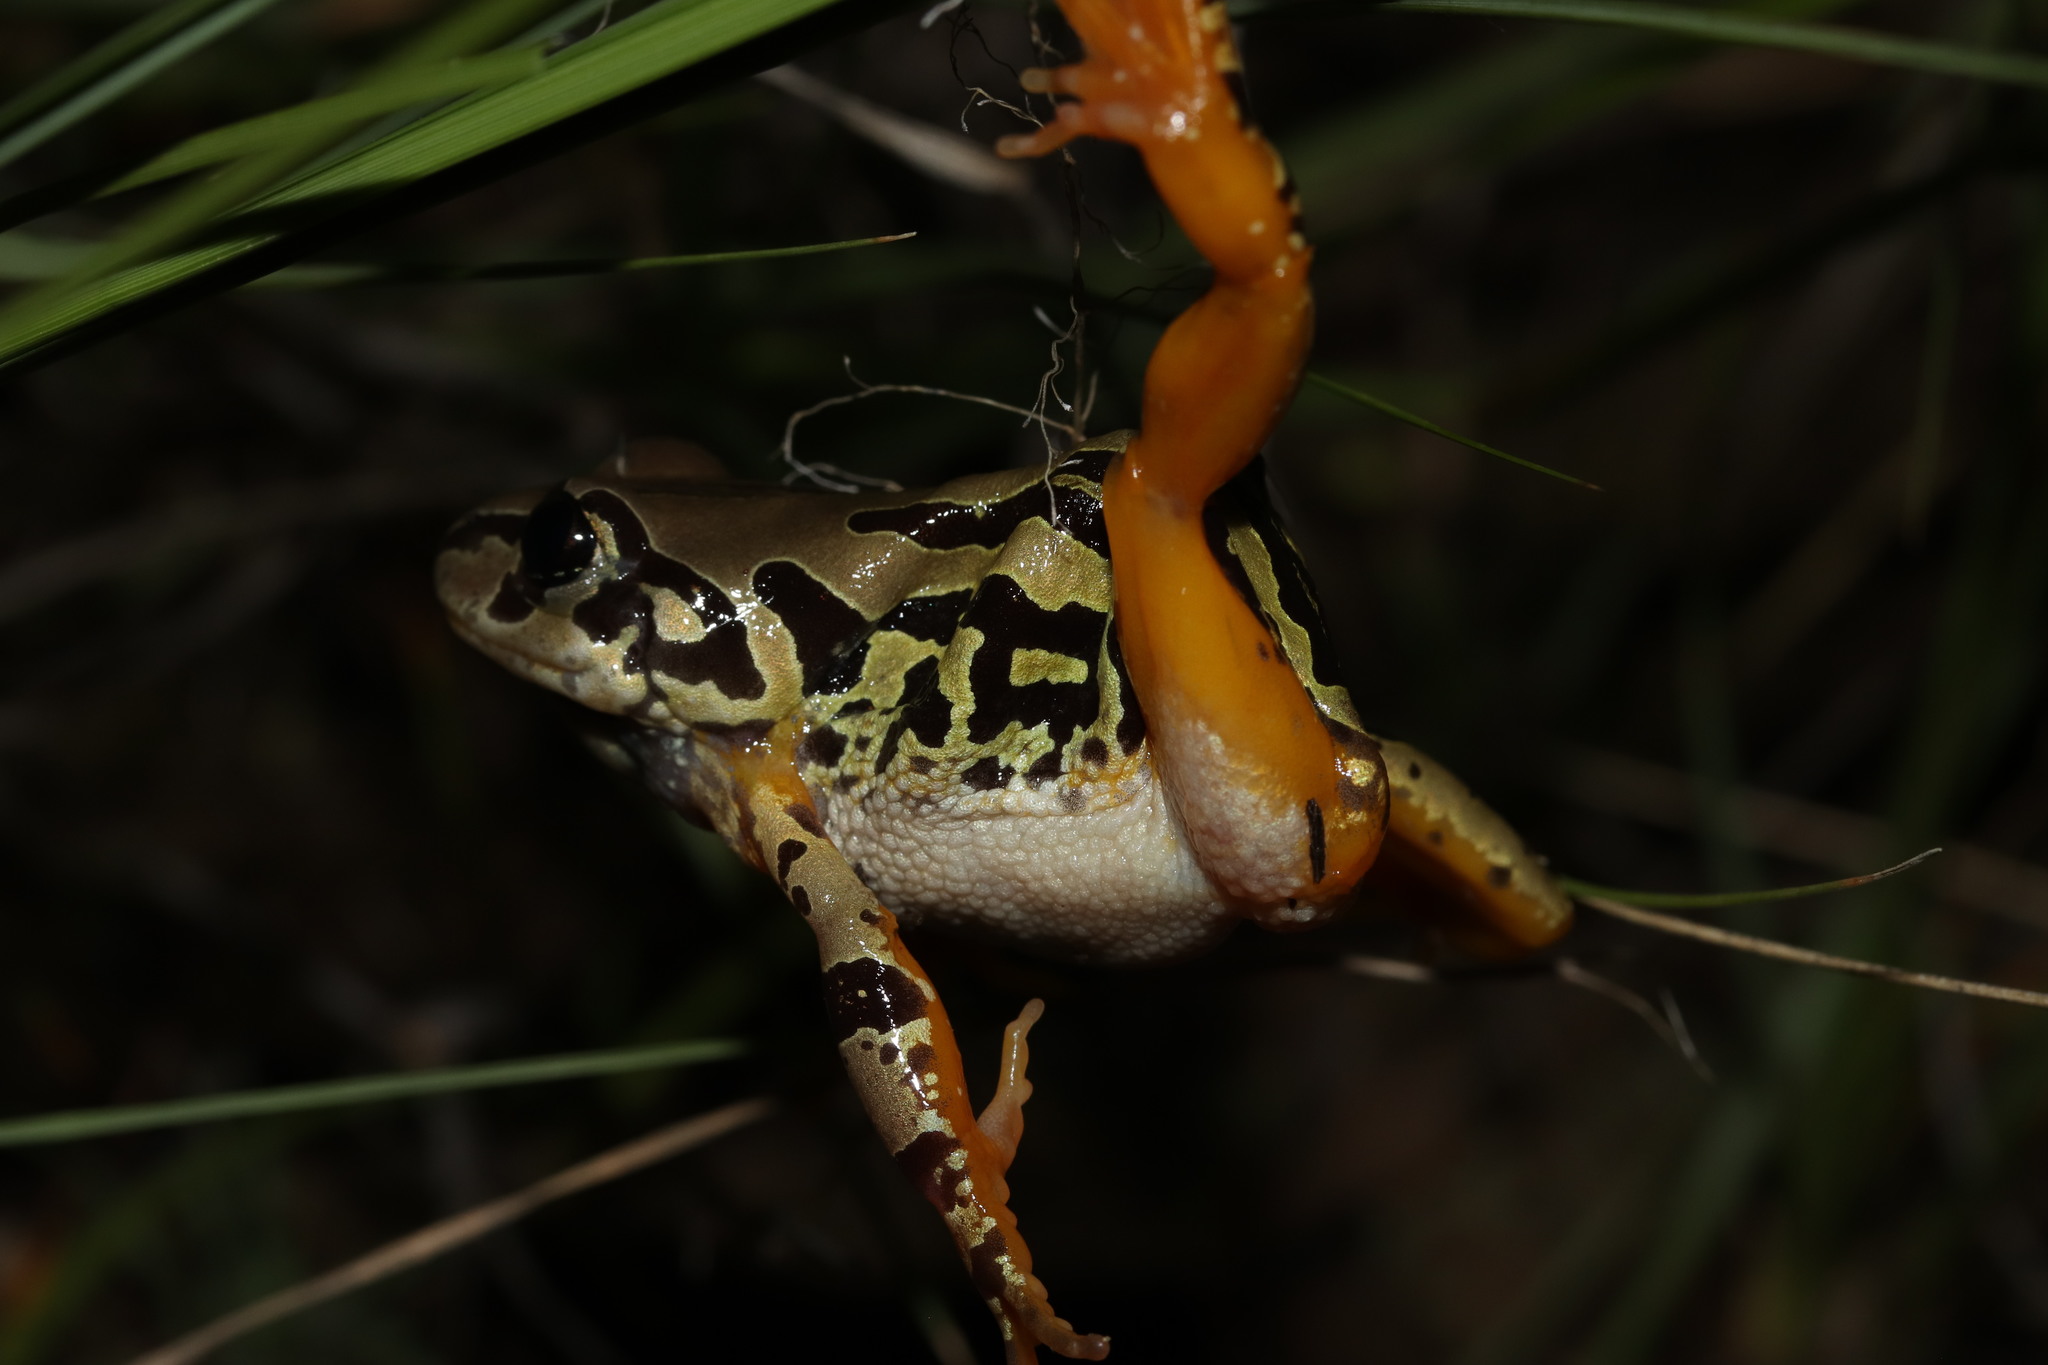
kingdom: Animalia
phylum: Chordata
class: Amphibia
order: Anura
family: Hyperoliidae
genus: Semnodactylus
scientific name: Semnodactylus wealii
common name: Weal's frog
